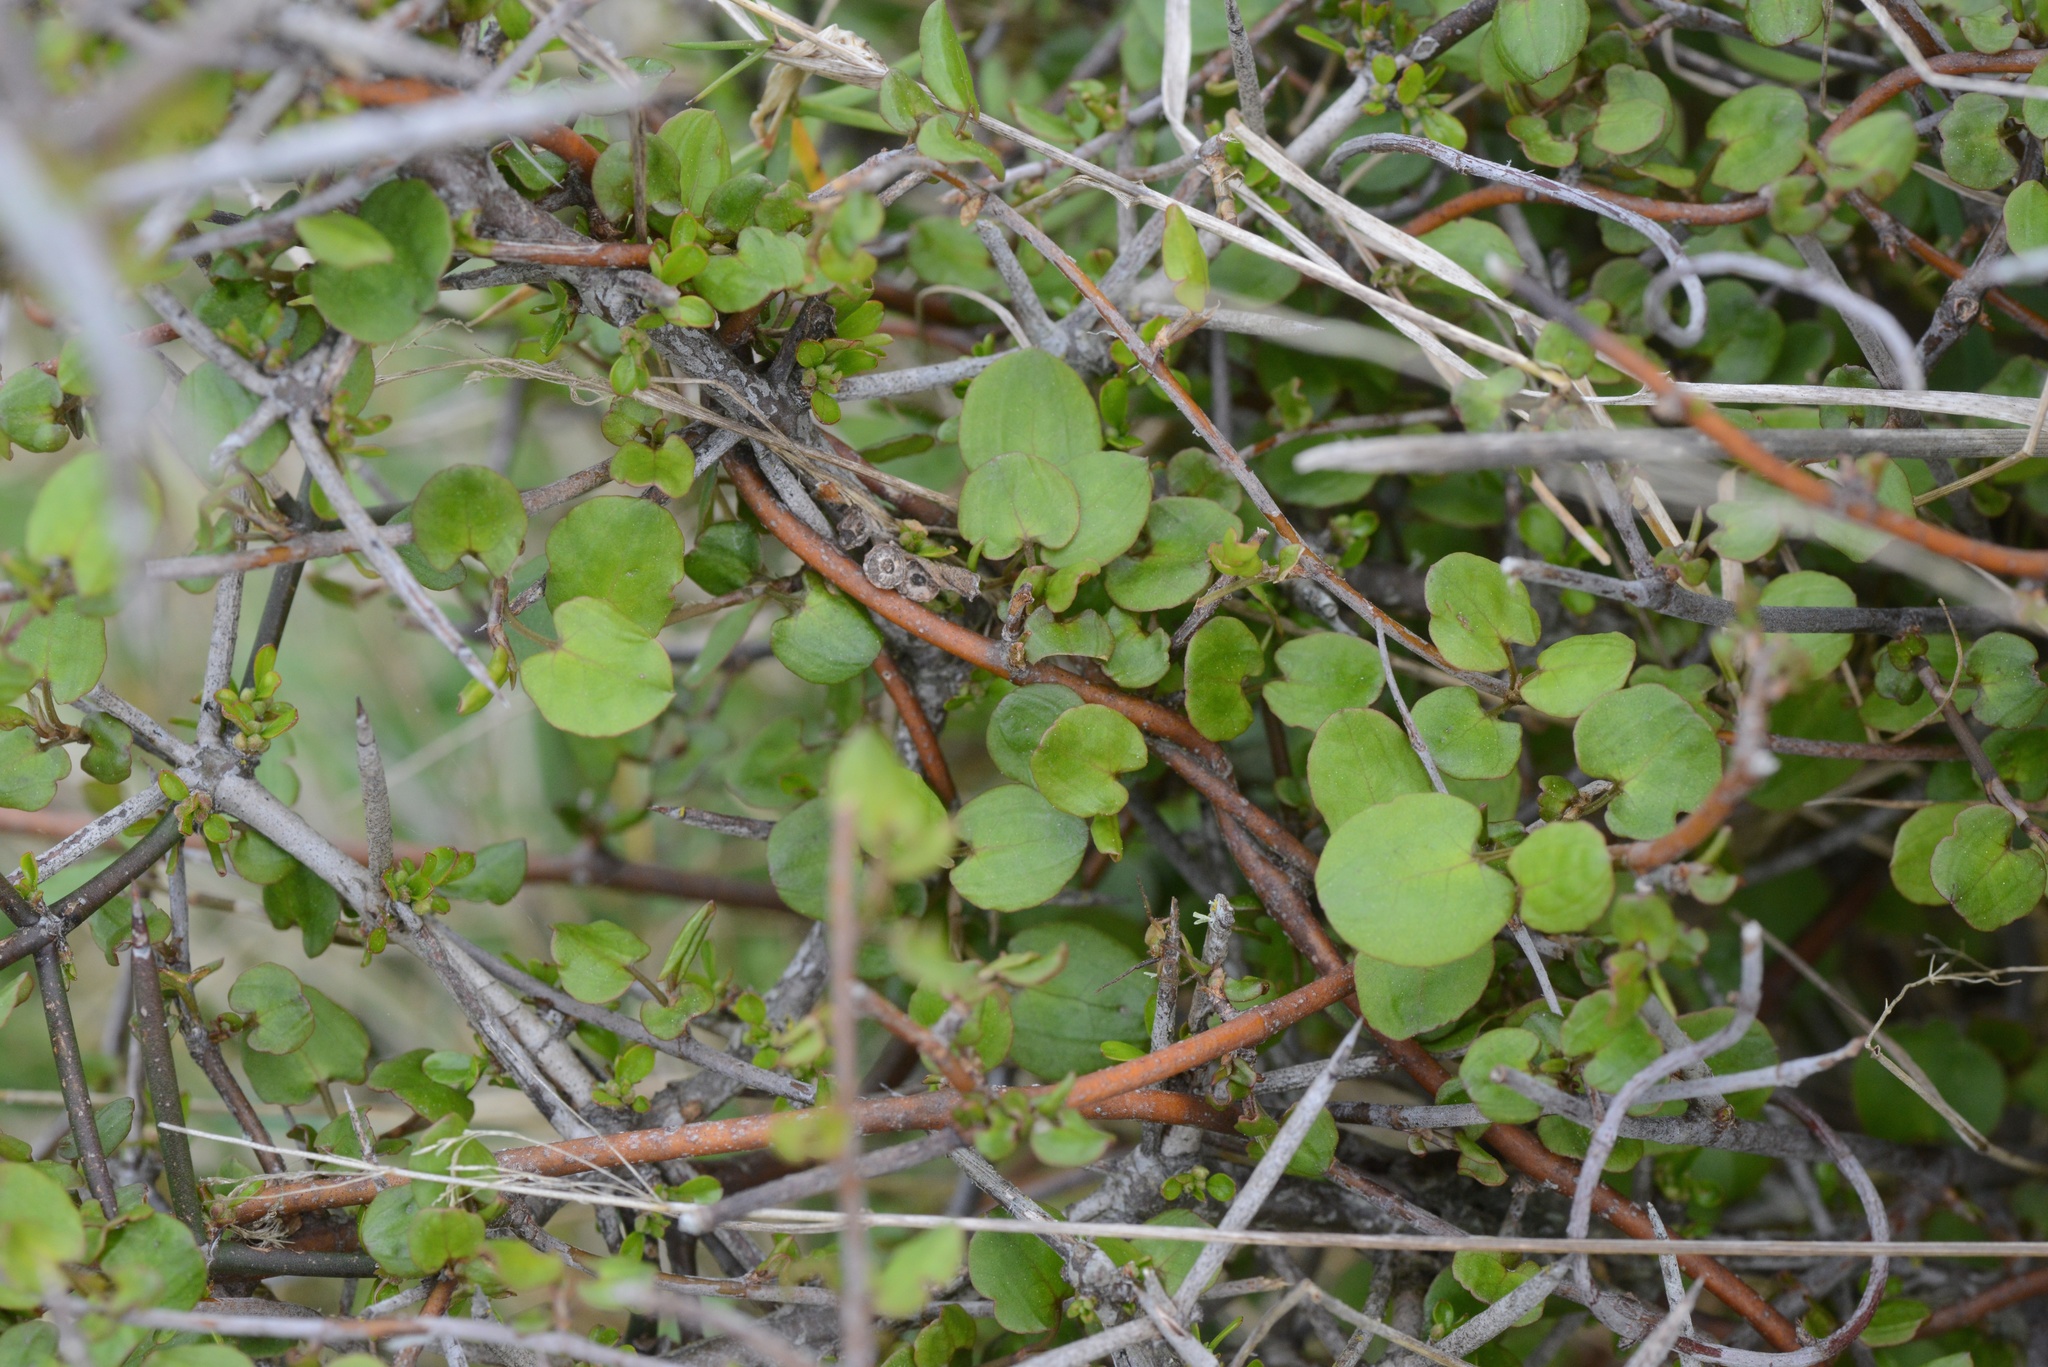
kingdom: Plantae
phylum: Tracheophyta
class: Magnoliopsida
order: Caryophyllales
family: Polygonaceae
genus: Muehlenbeckia
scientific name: Muehlenbeckia complexa
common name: Wireplant
